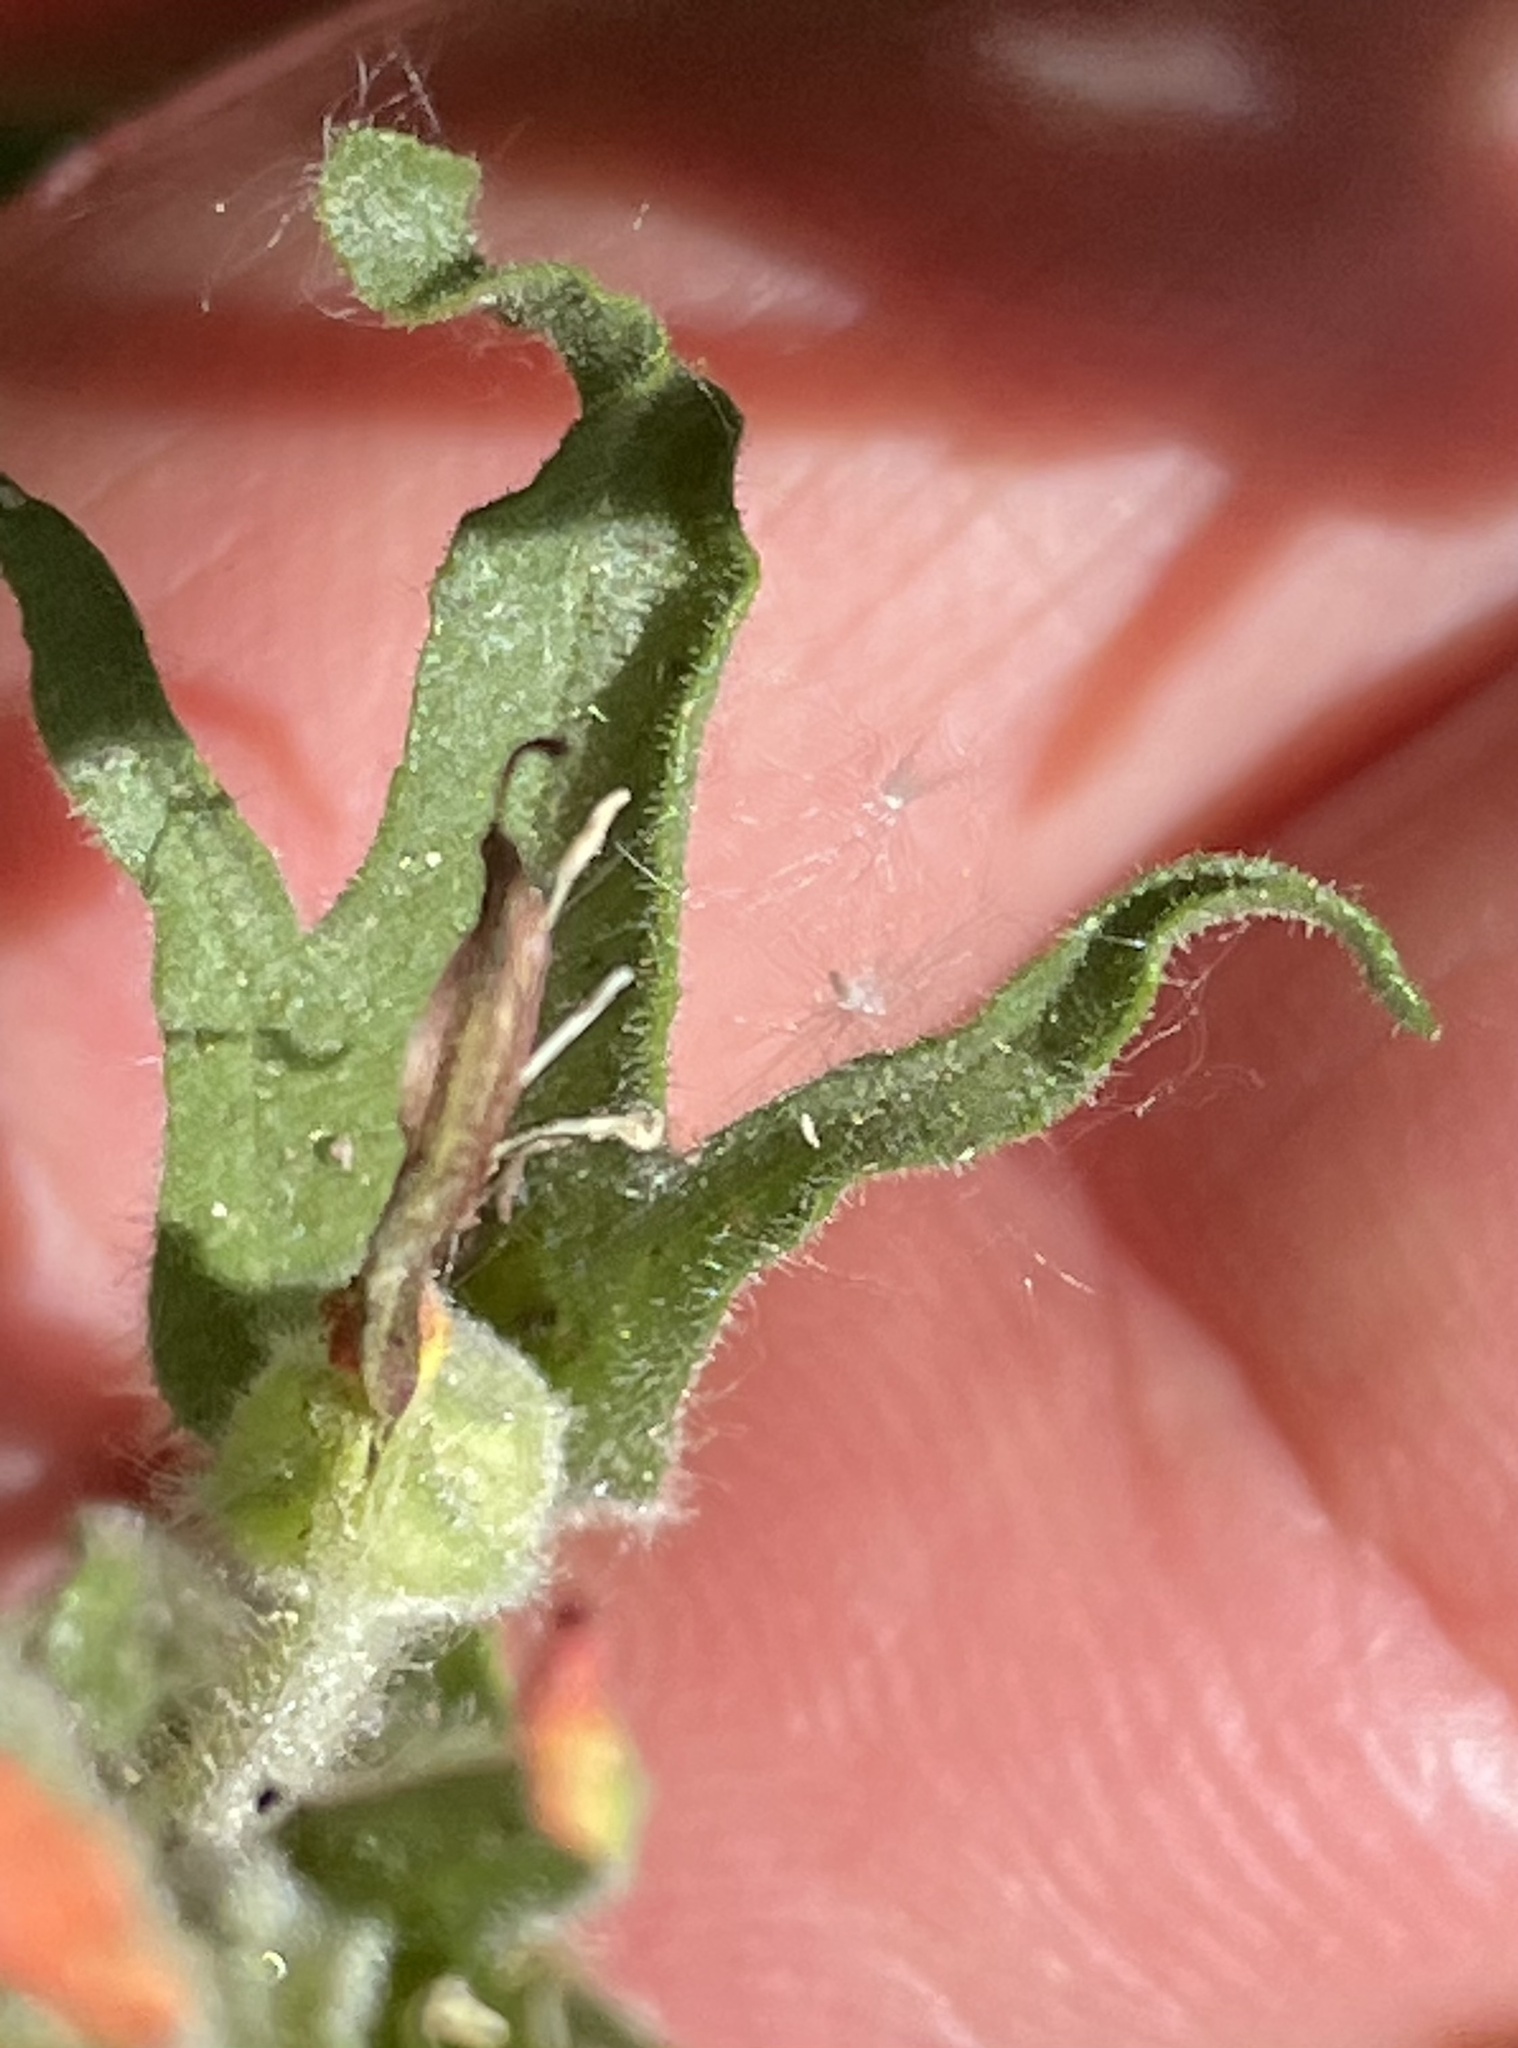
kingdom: Plantae
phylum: Tracheophyta
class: Magnoliopsida
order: Lamiales
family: Orobanchaceae
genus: Castilleja
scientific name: Castilleja applegatei
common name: Wavy-leaf paintbrush
